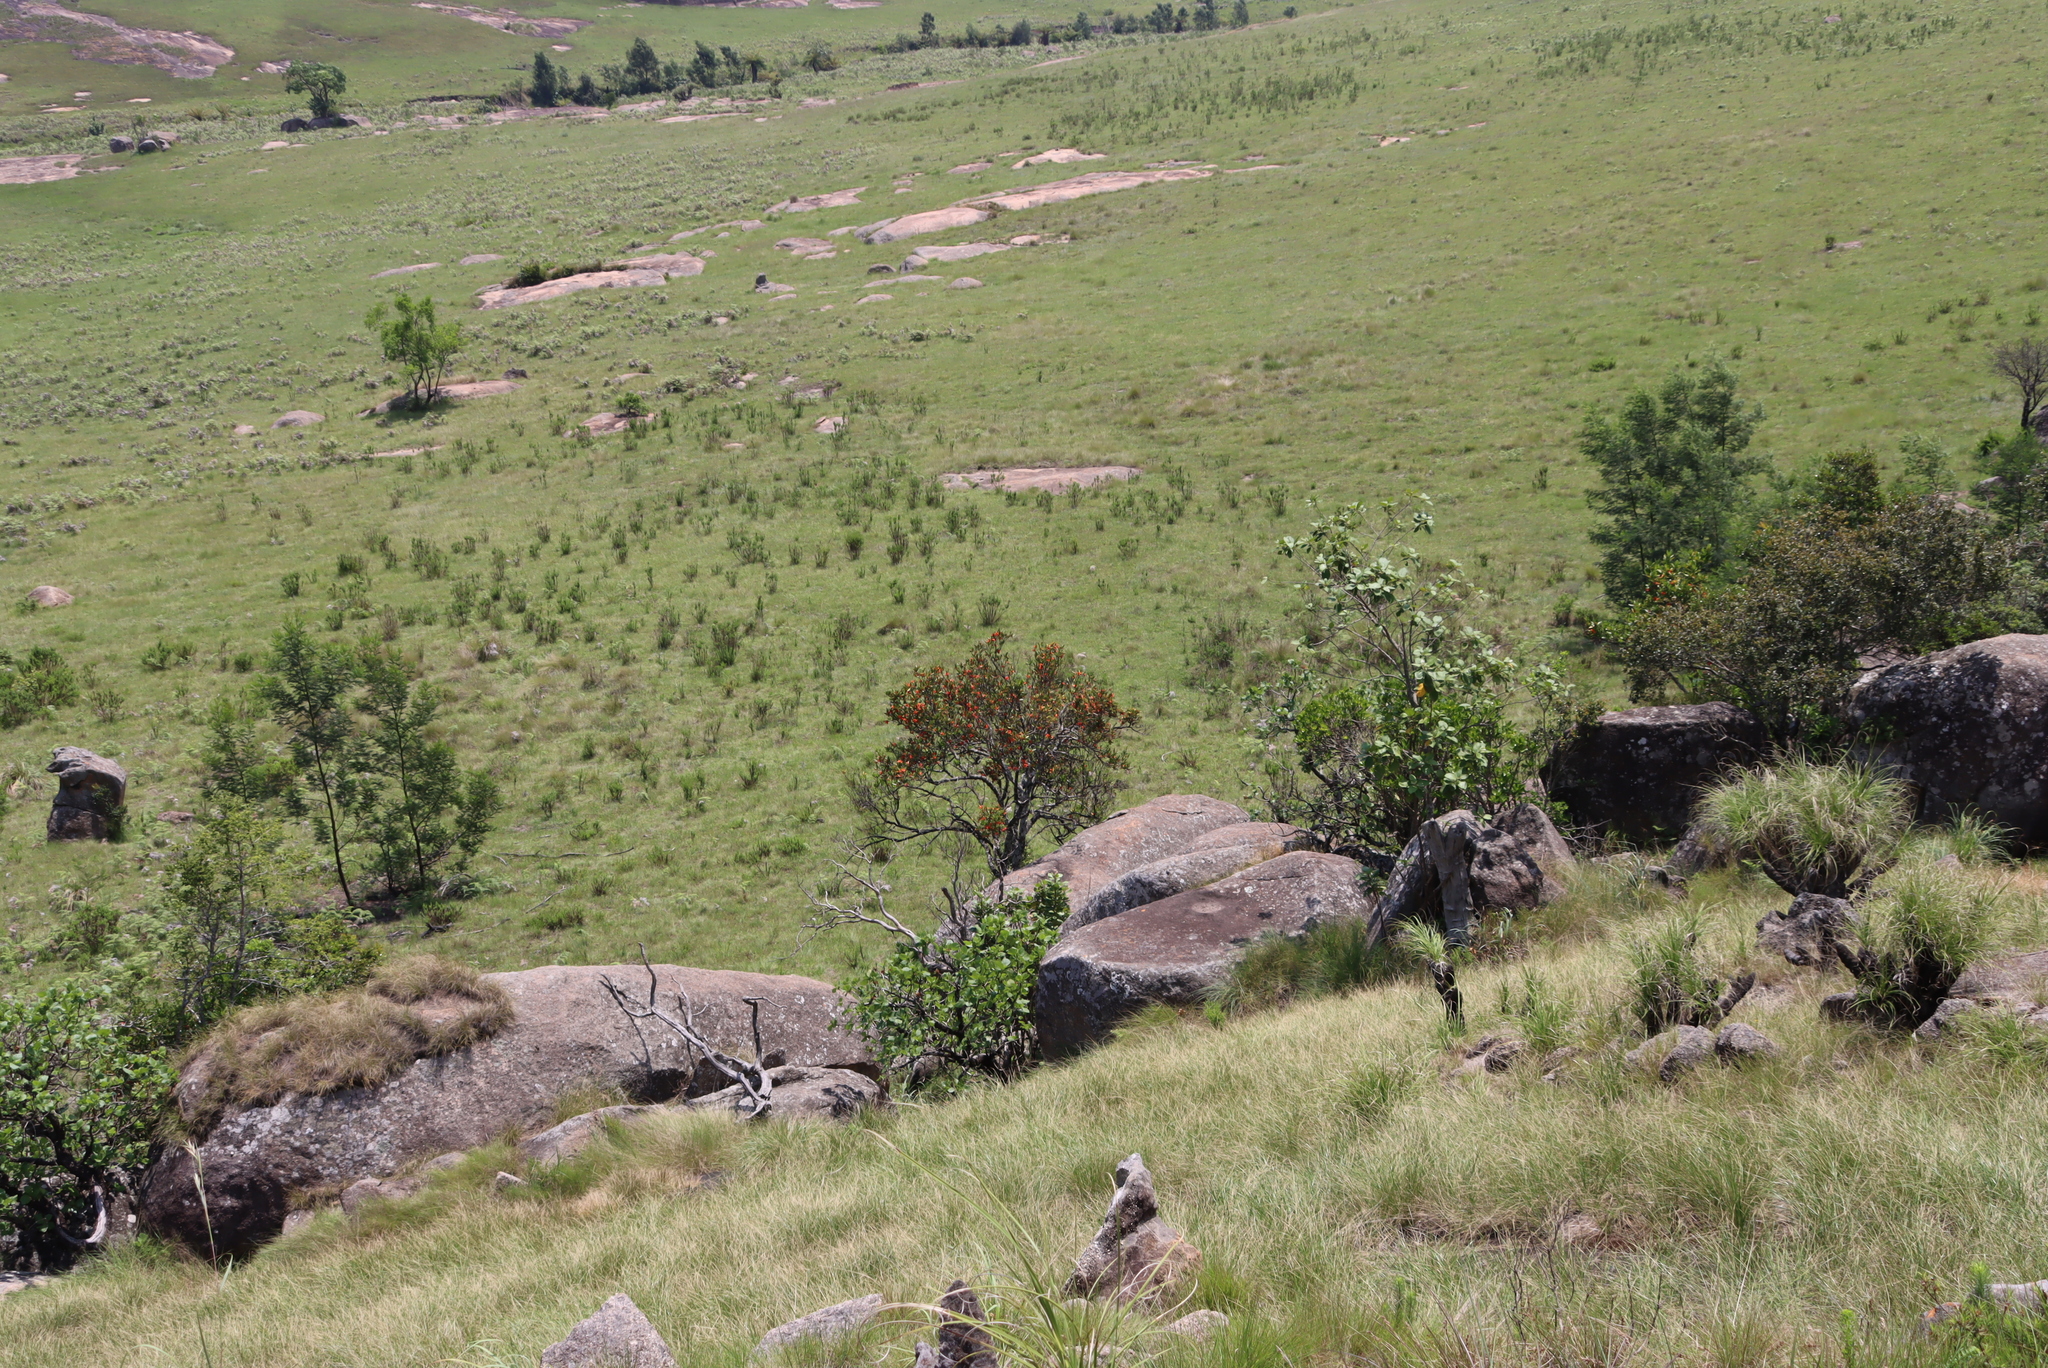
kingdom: Plantae
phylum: Tracheophyta
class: Magnoliopsida
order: Gentianales
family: Rubiaceae
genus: Burchellia
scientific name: Burchellia bubalina
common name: Wild pomegranate
